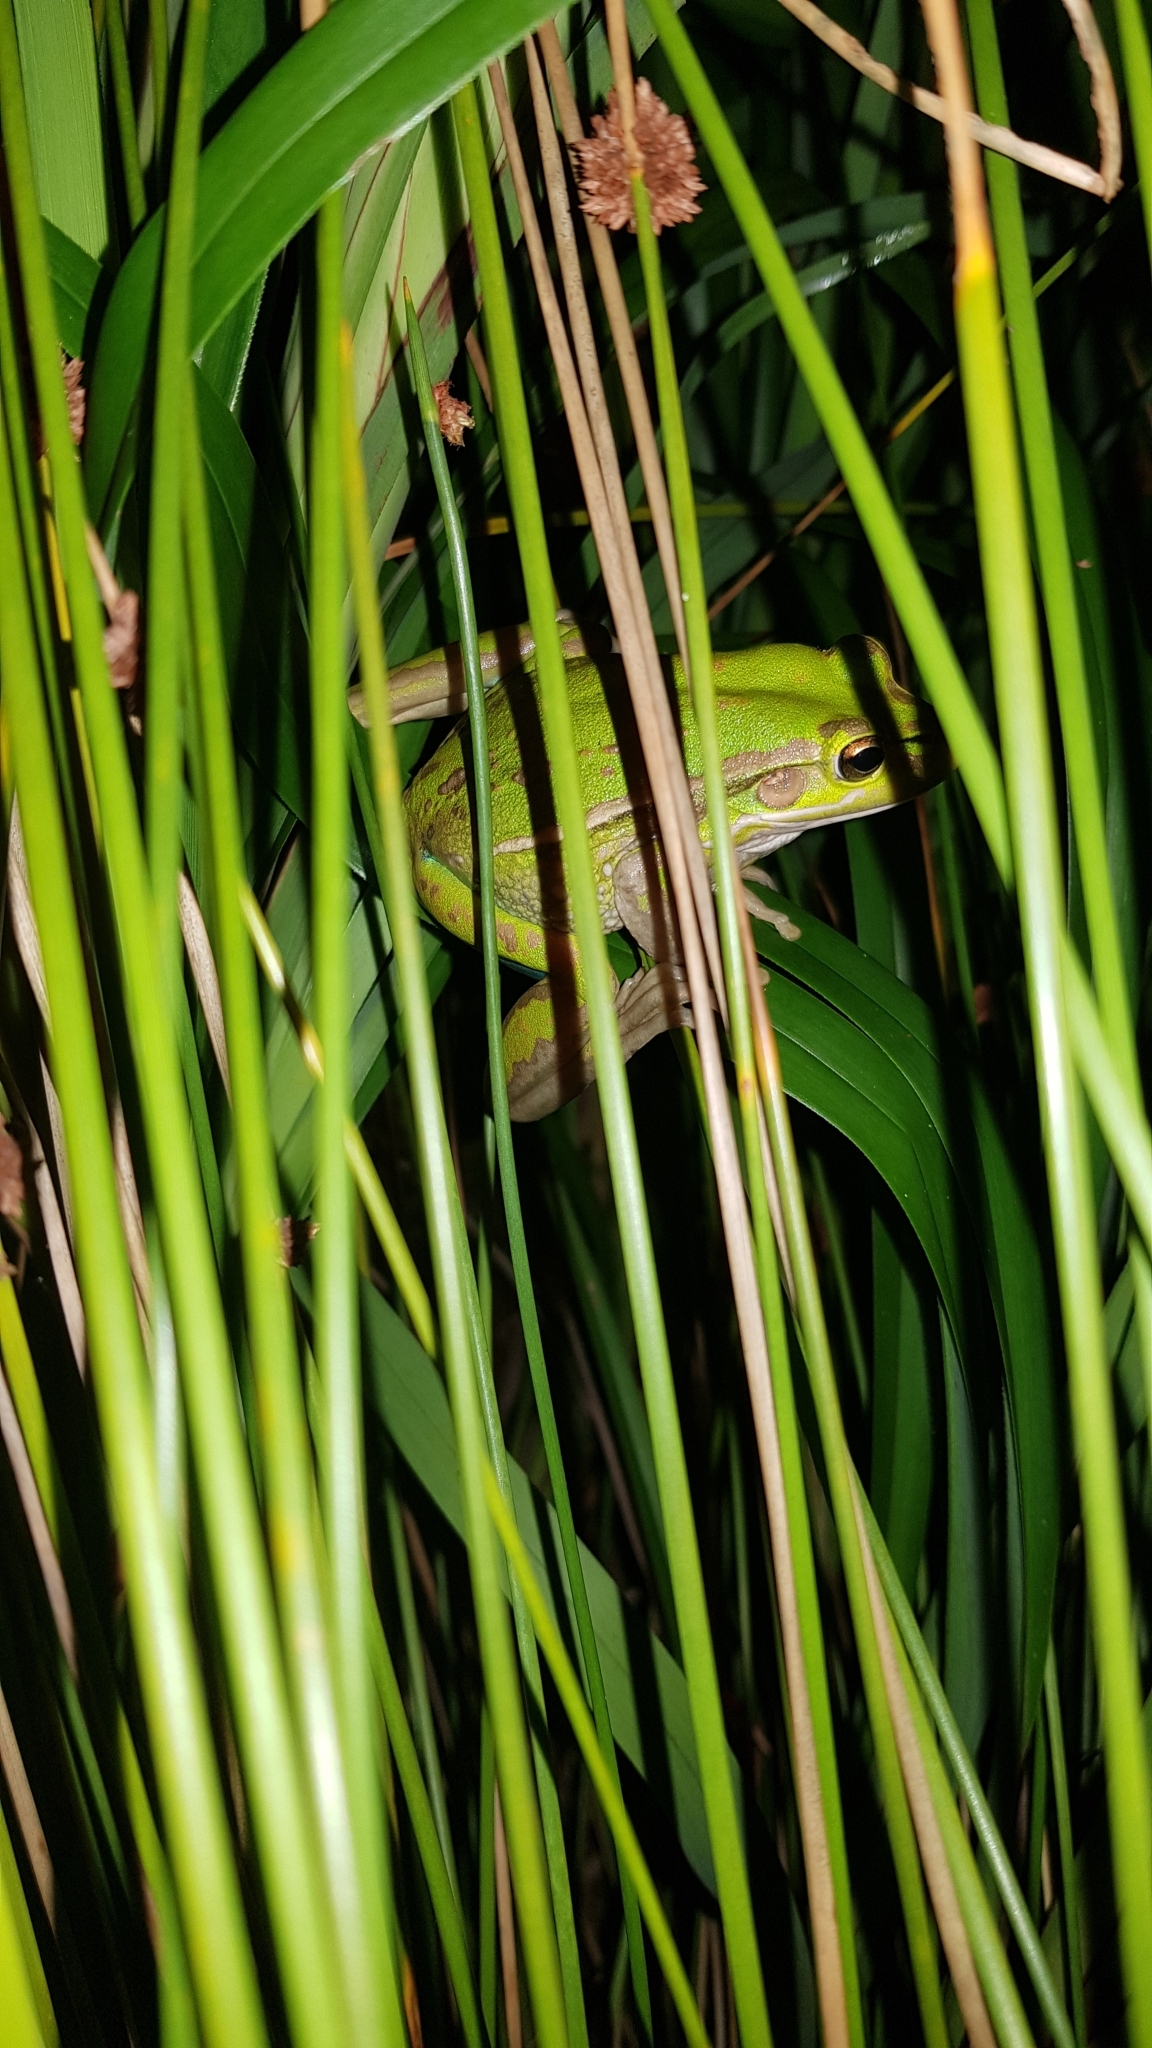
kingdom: Animalia
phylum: Chordata
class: Amphibia
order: Anura
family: Pelodryadidae
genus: Ranoidea
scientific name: Ranoidea aurea
